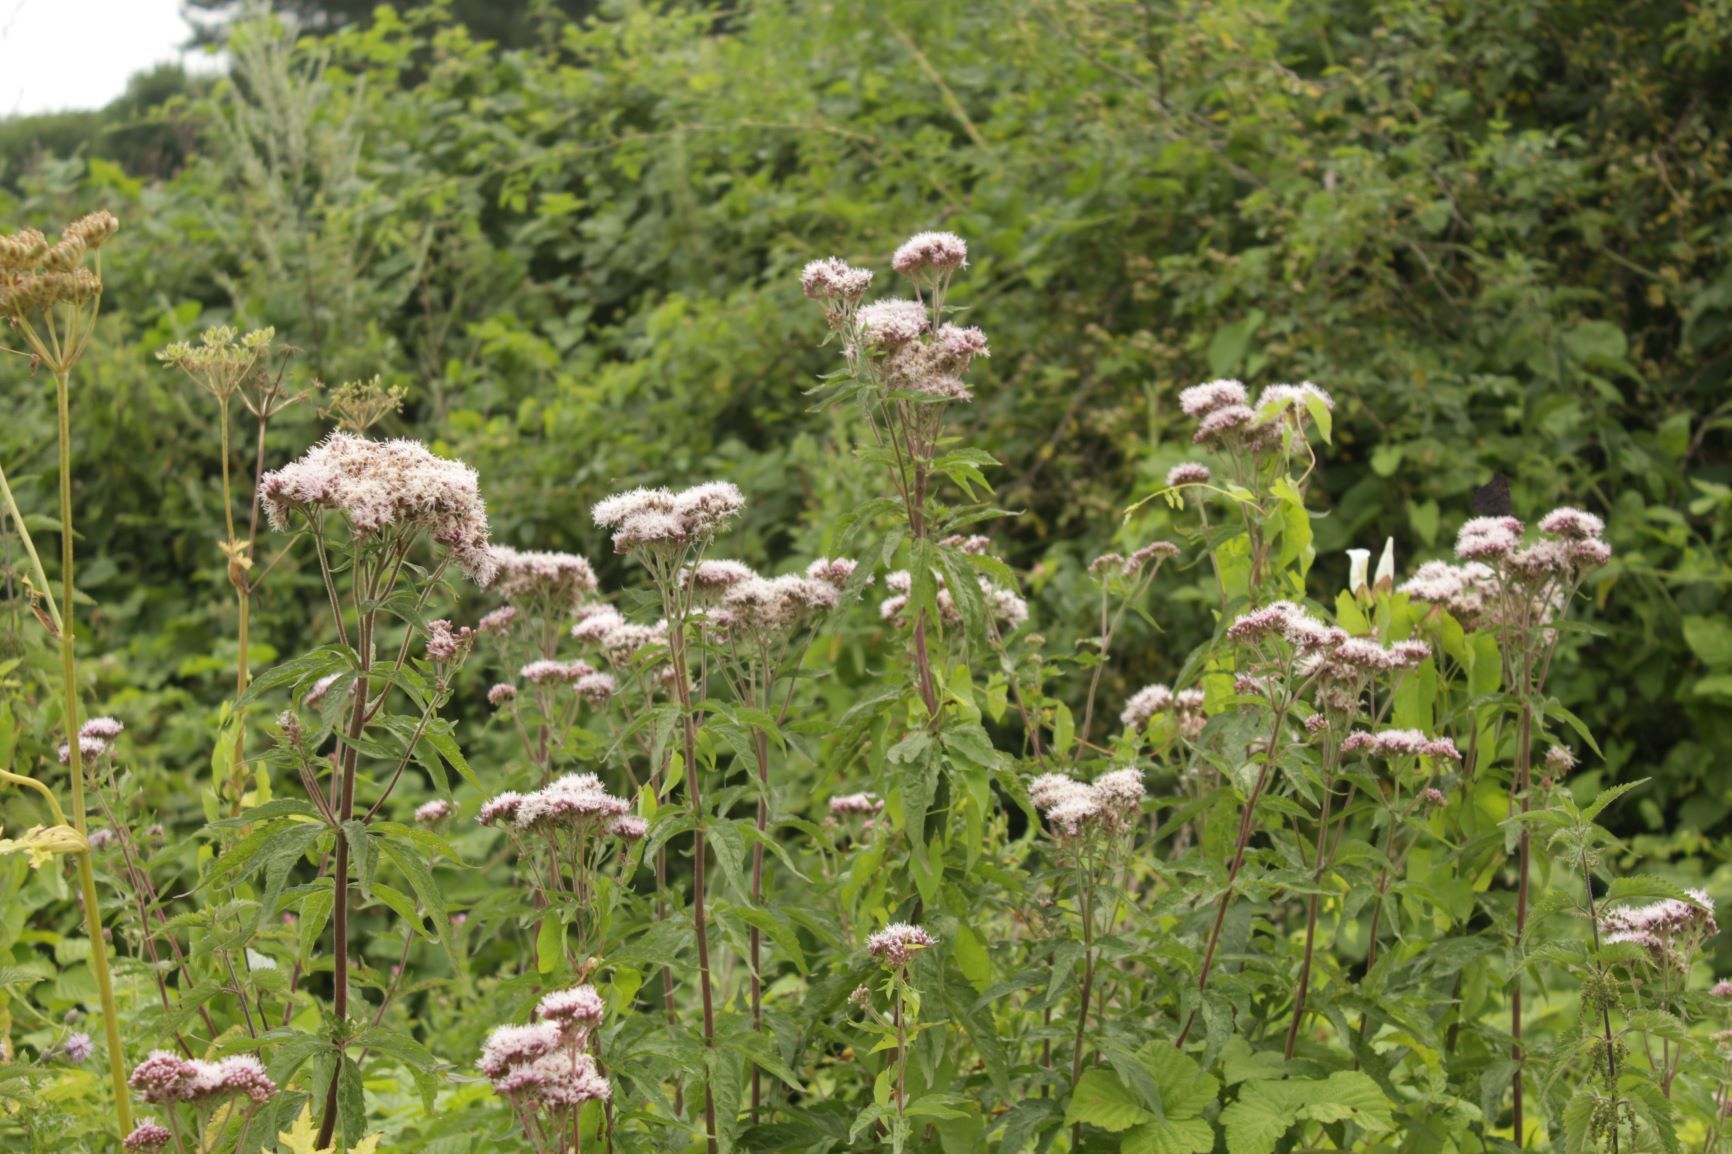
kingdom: Plantae
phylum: Tracheophyta
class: Magnoliopsida
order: Asterales
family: Asteraceae
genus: Eupatorium
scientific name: Eupatorium cannabinum
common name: Hemp-agrimony
